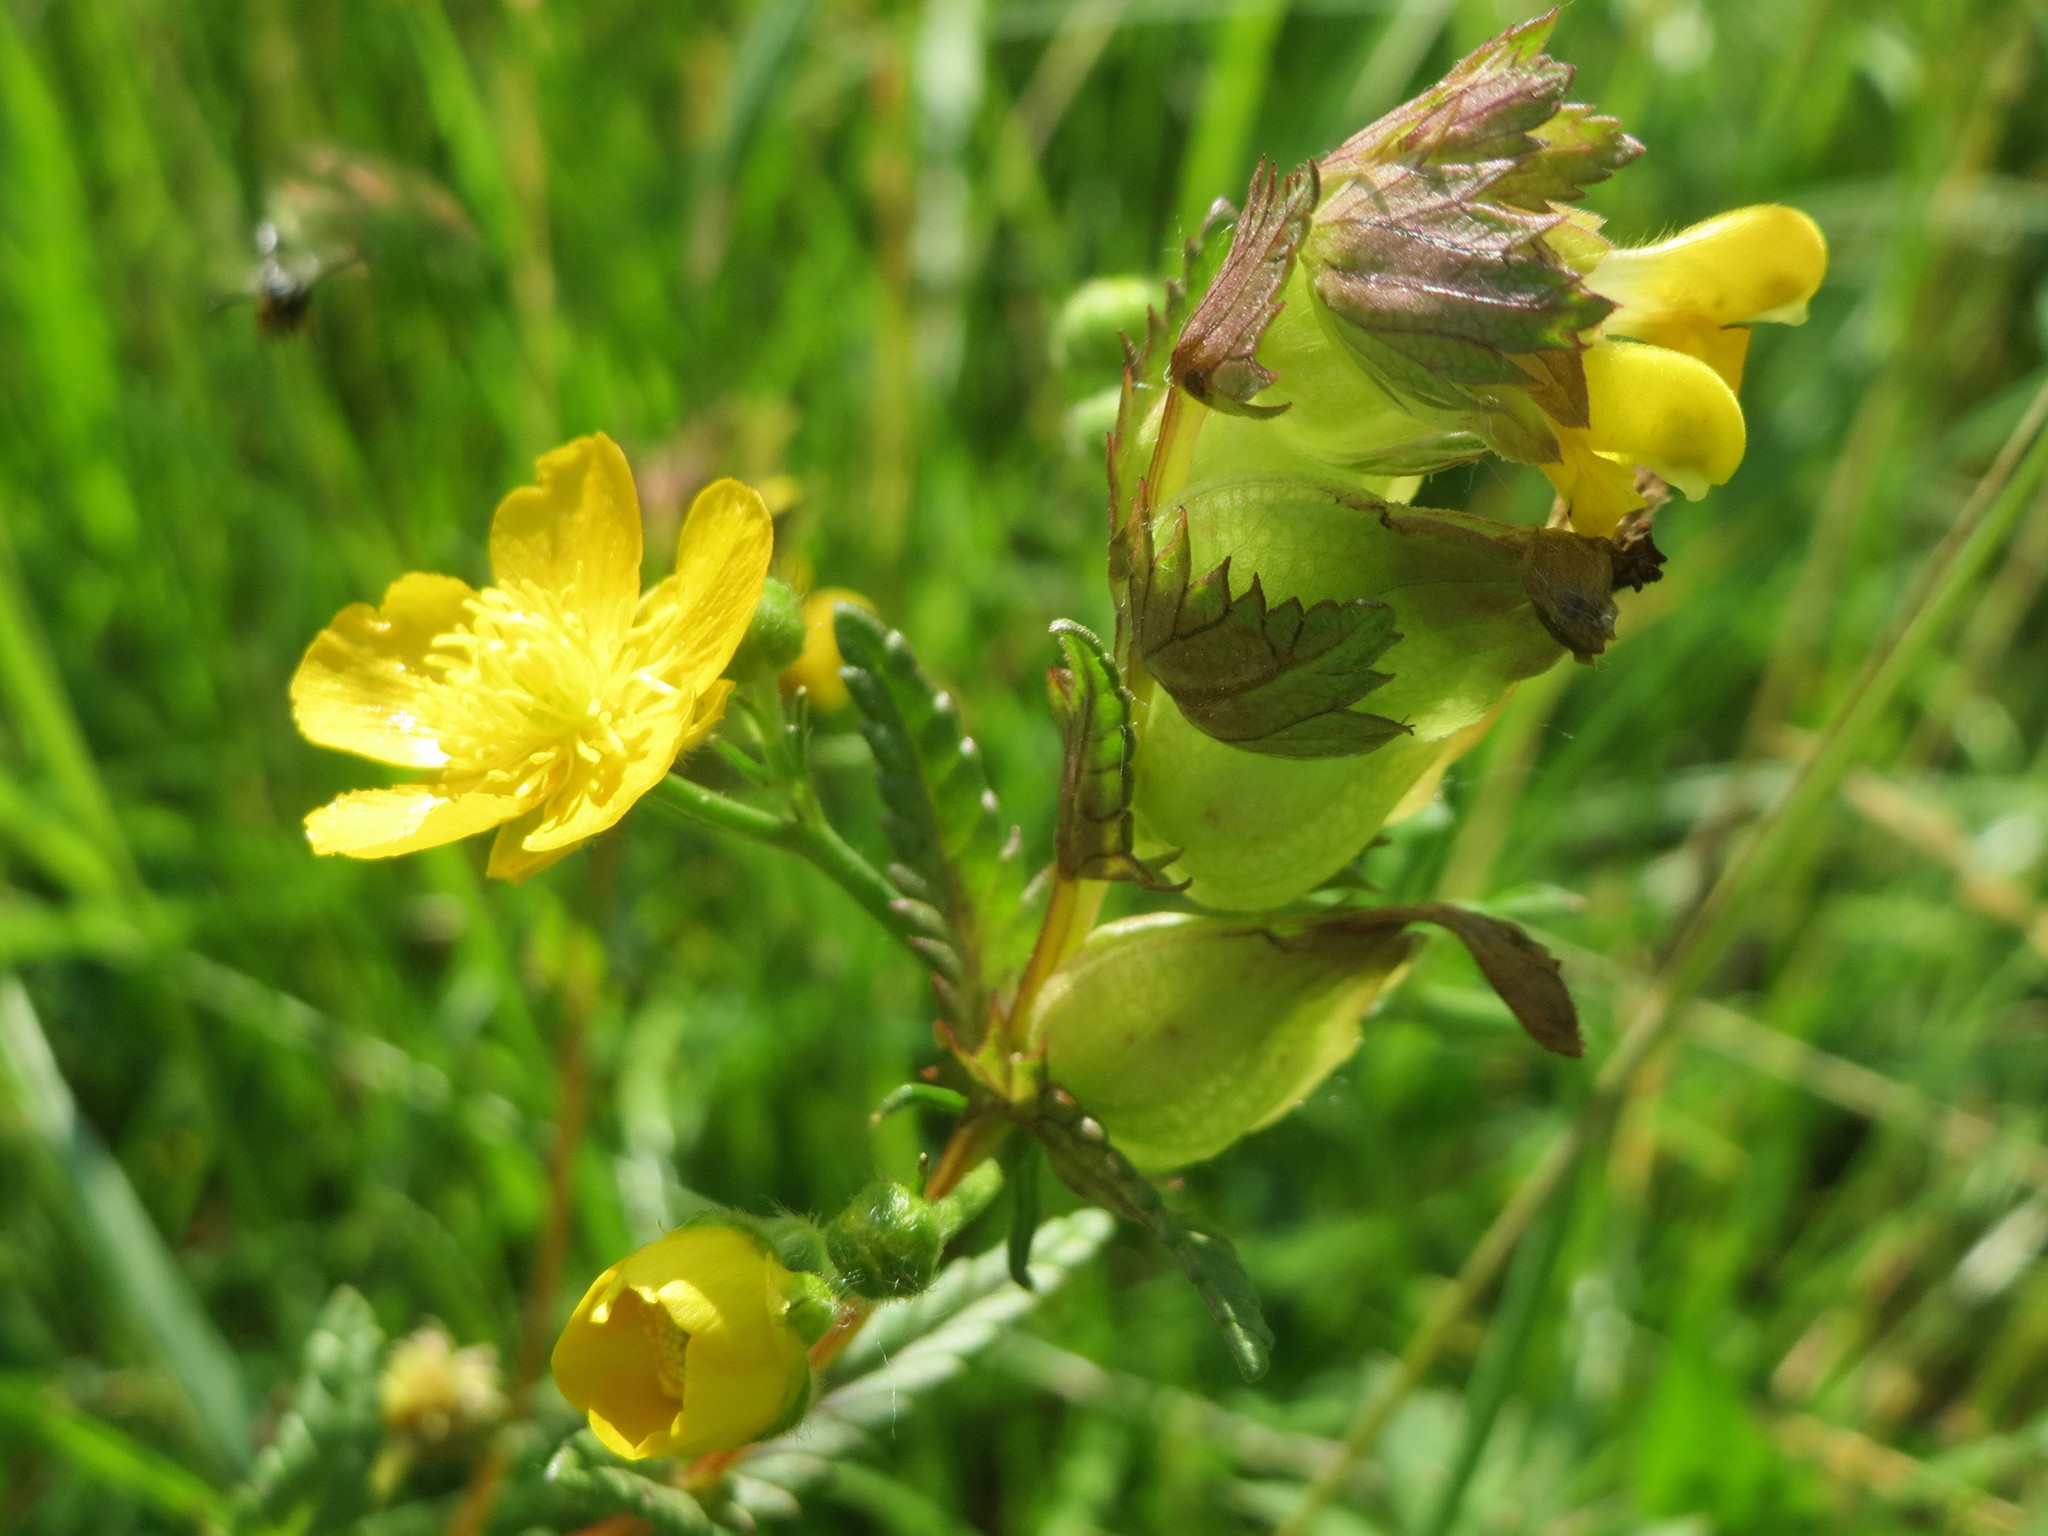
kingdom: Plantae
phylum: Tracheophyta
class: Magnoliopsida
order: Lamiales
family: Orobanchaceae
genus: Rhinanthus
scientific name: Rhinanthus minor
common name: Yellow-rattle
